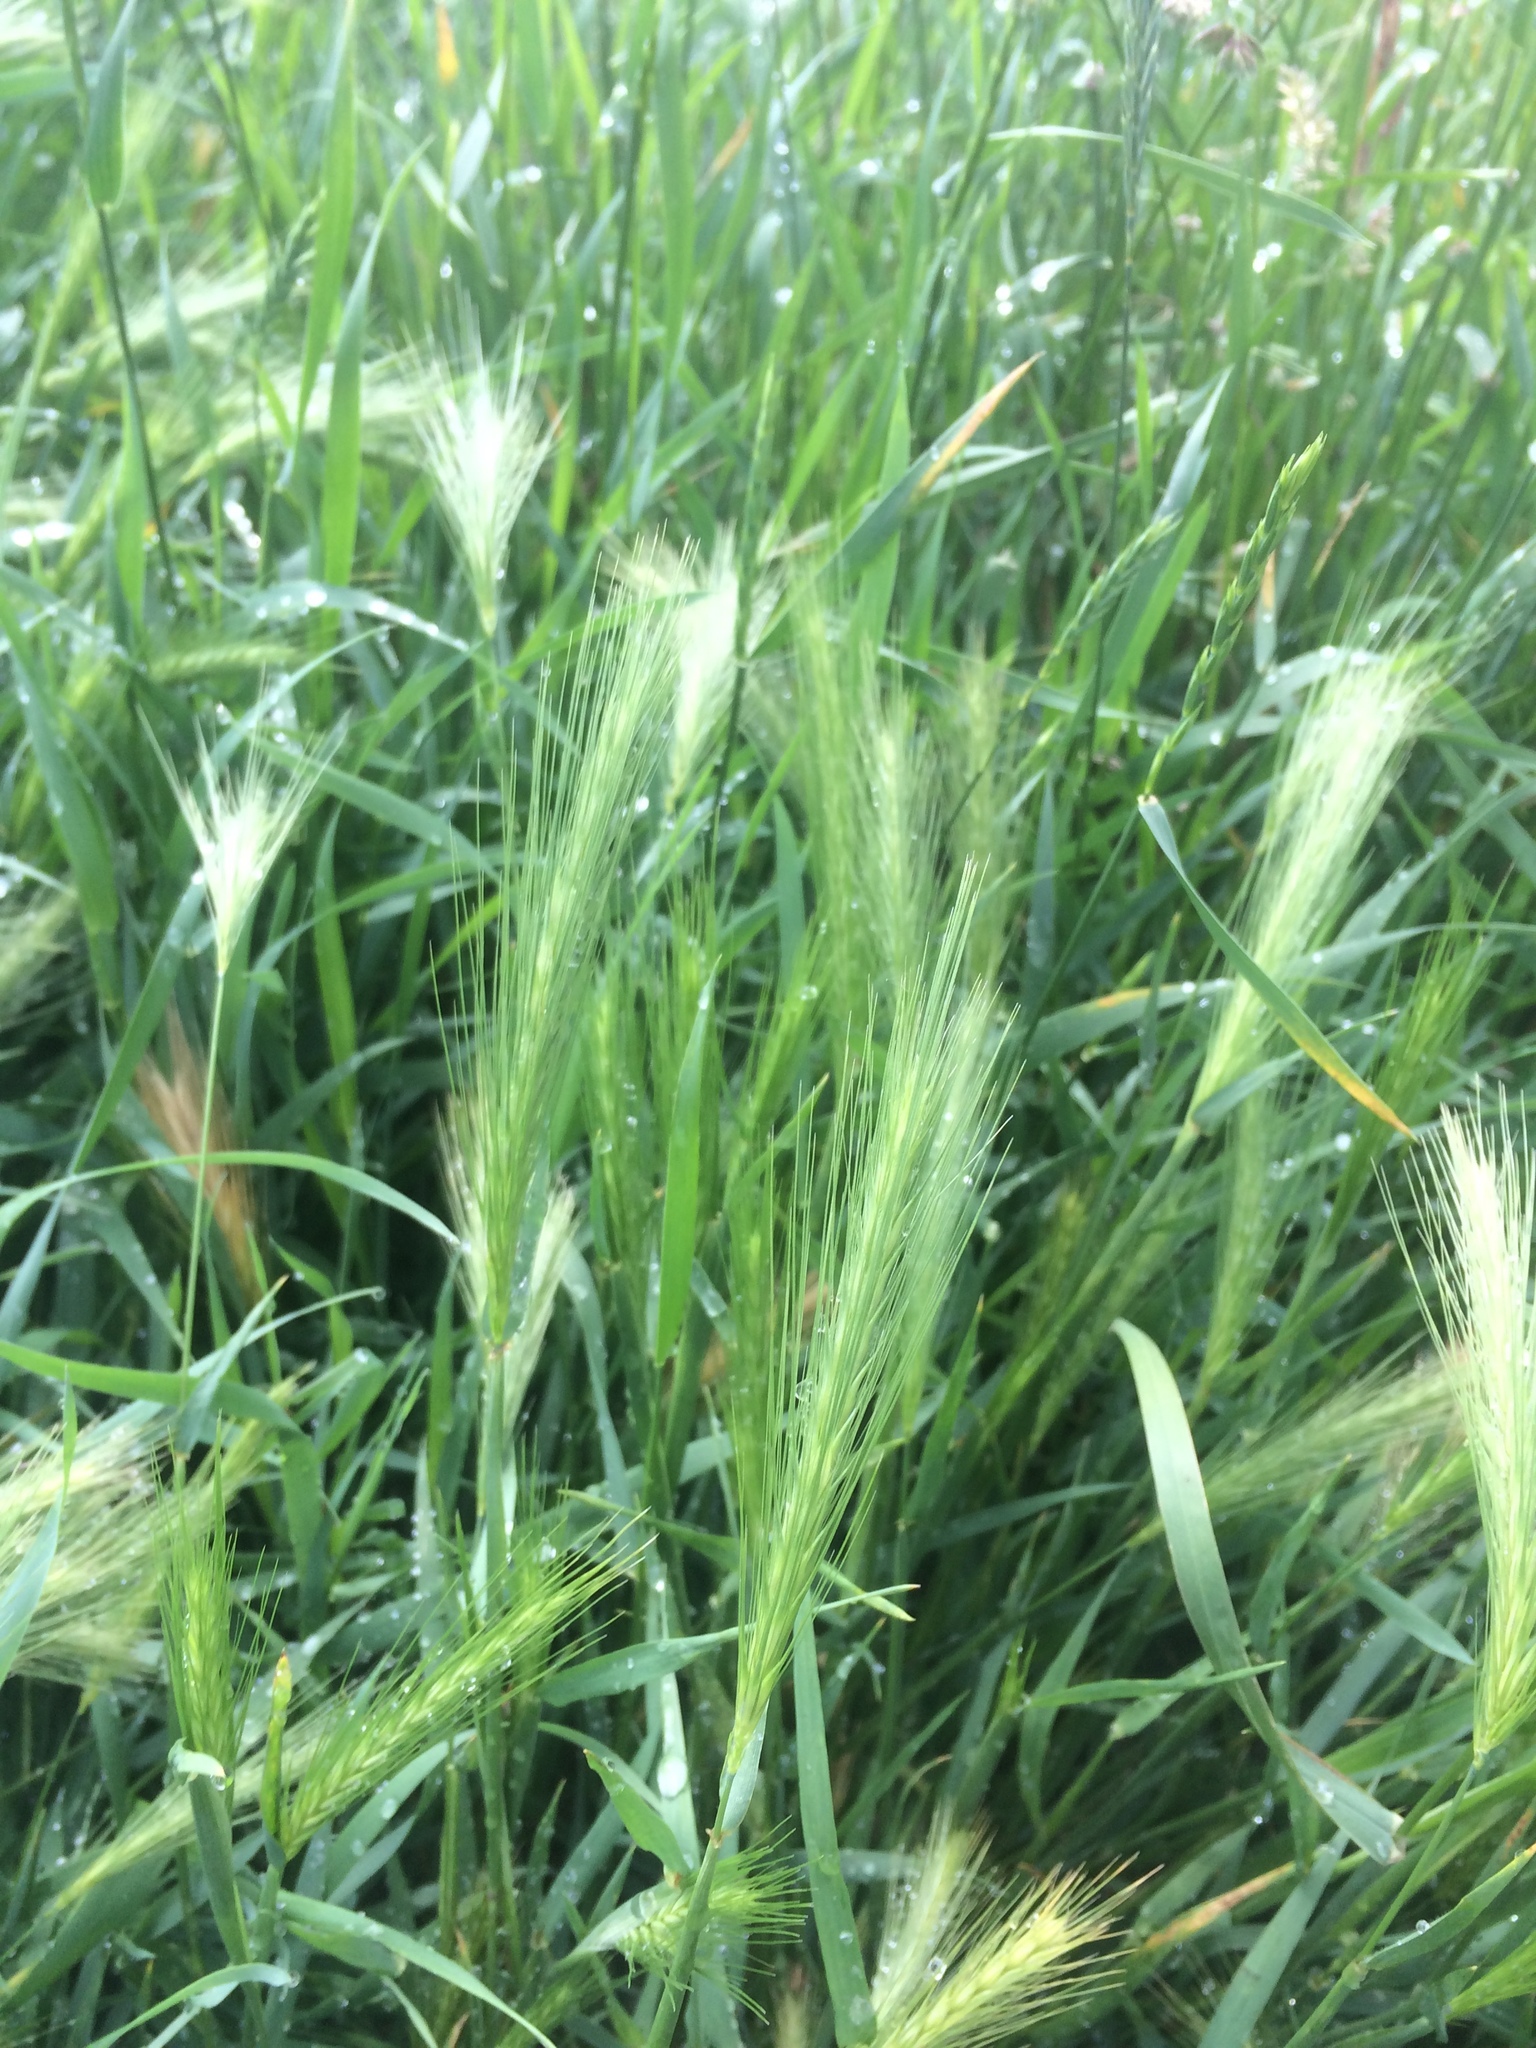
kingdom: Plantae
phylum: Tracheophyta
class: Liliopsida
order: Poales
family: Poaceae
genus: Hordeum
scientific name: Hordeum murinum
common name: Wall barley
